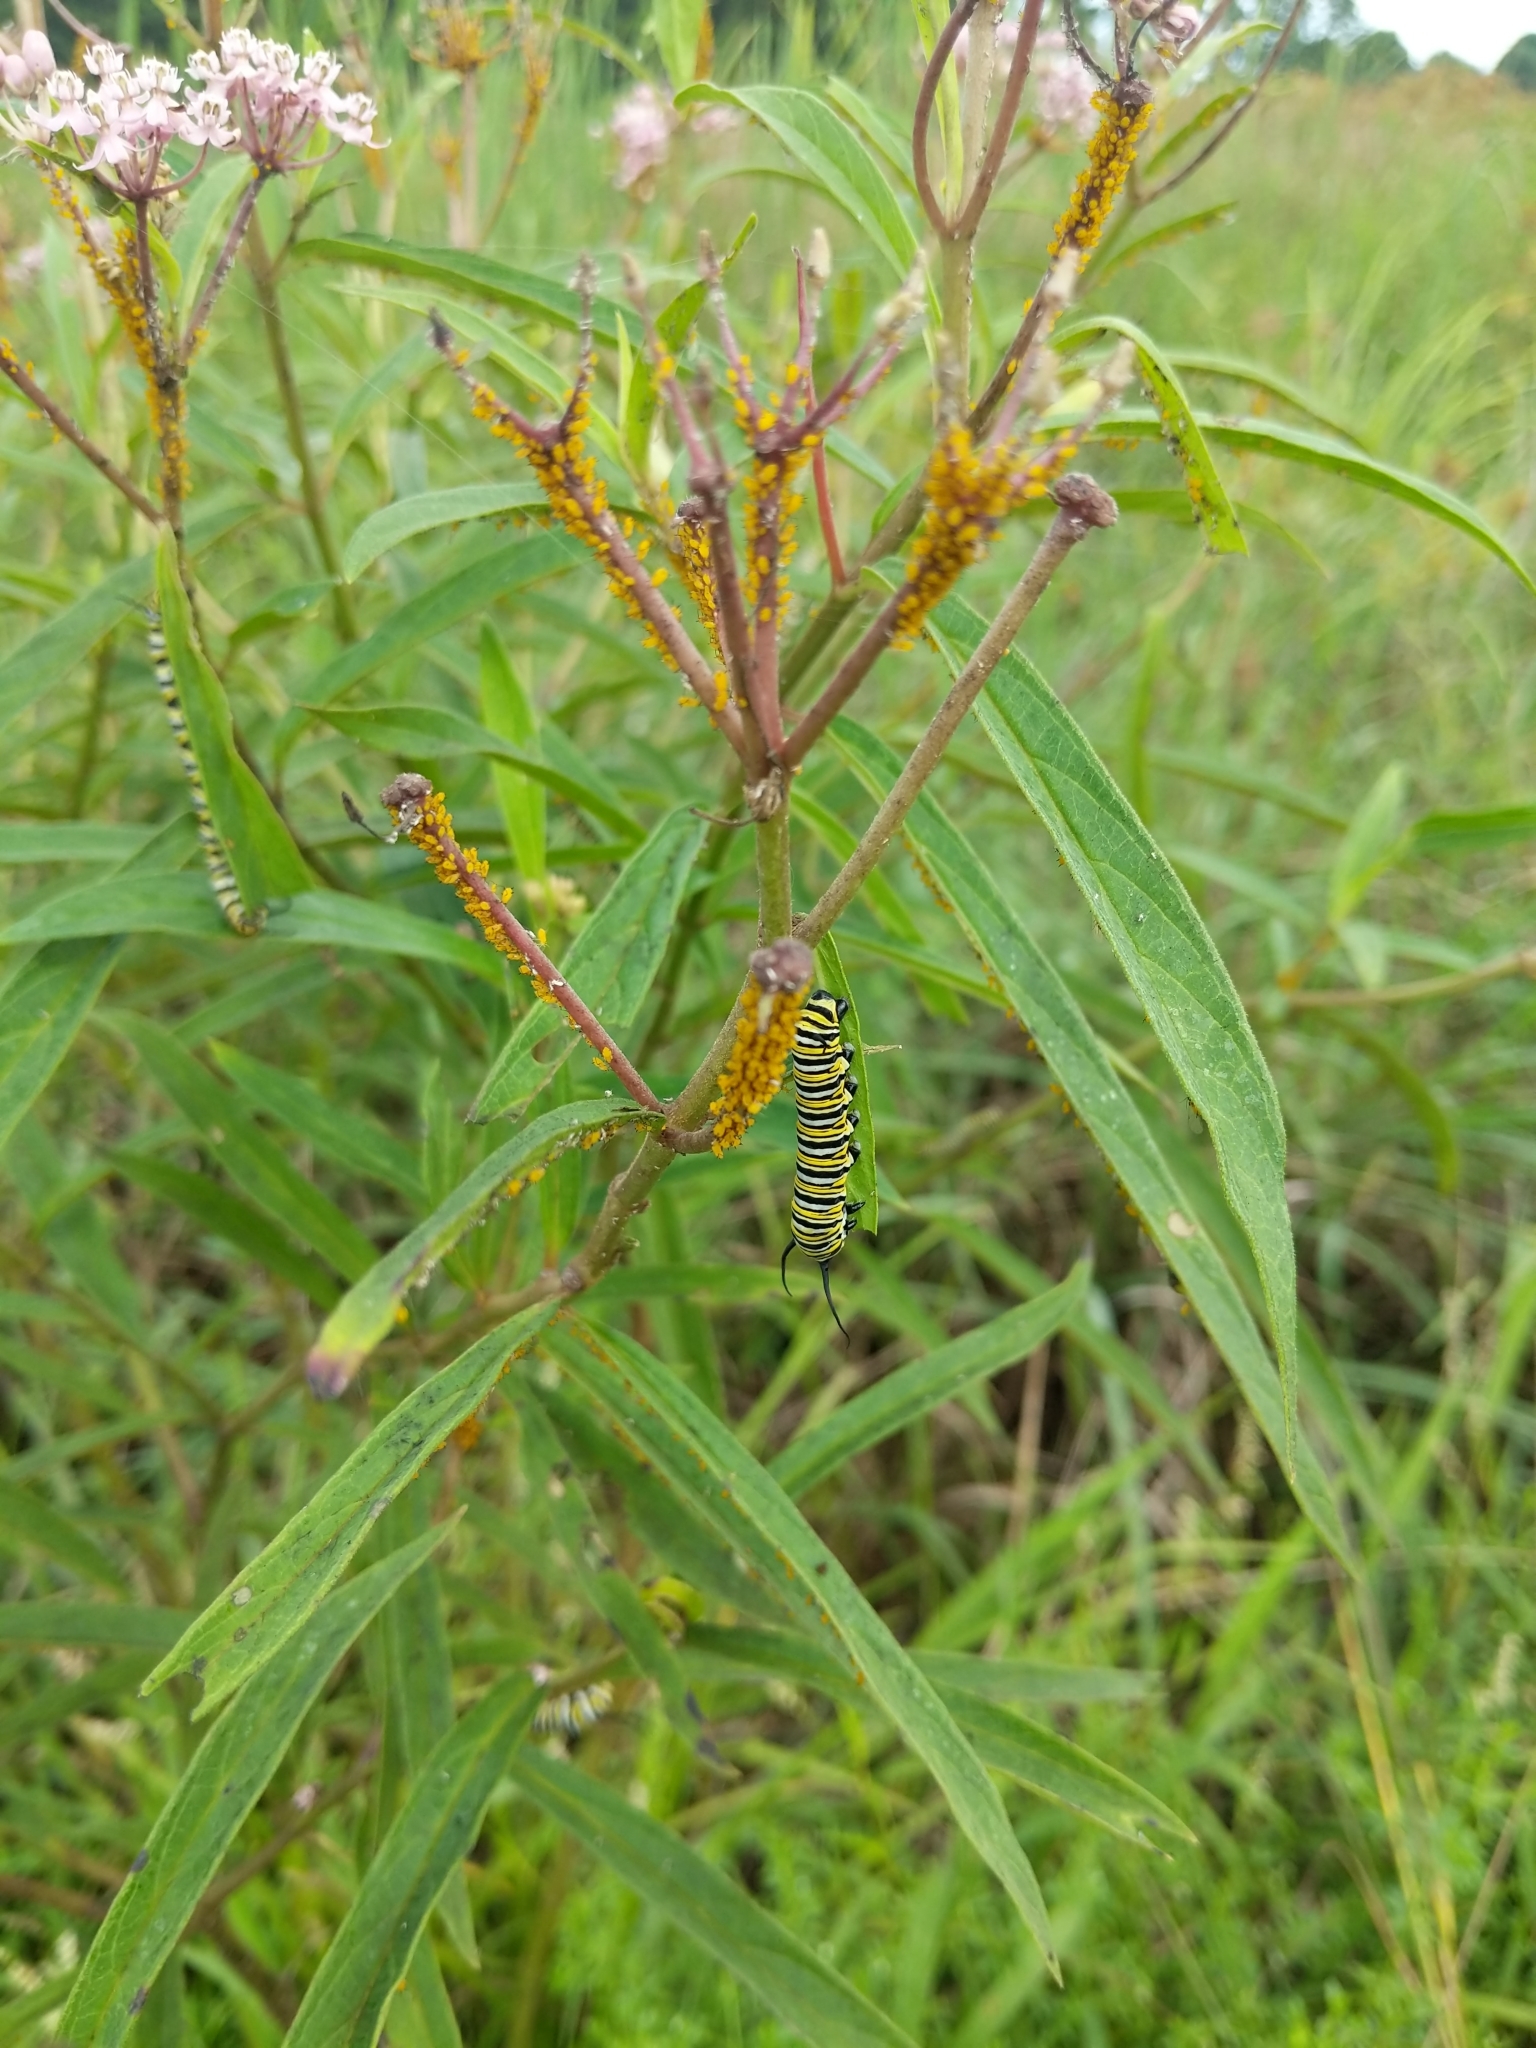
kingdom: Plantae
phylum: Tracheophyta
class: Magnoliopsida
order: Gentianales
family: Apocynaceae
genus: Asclepias
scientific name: Asclepias incarnata
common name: Swamp milkweed
